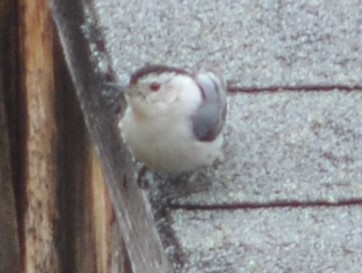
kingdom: Animalia
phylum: Chordata
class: Aves
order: Passeriformes
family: Sittidae
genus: Sitta
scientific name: Sitta carolinensis
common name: White-breasted nuthatch
